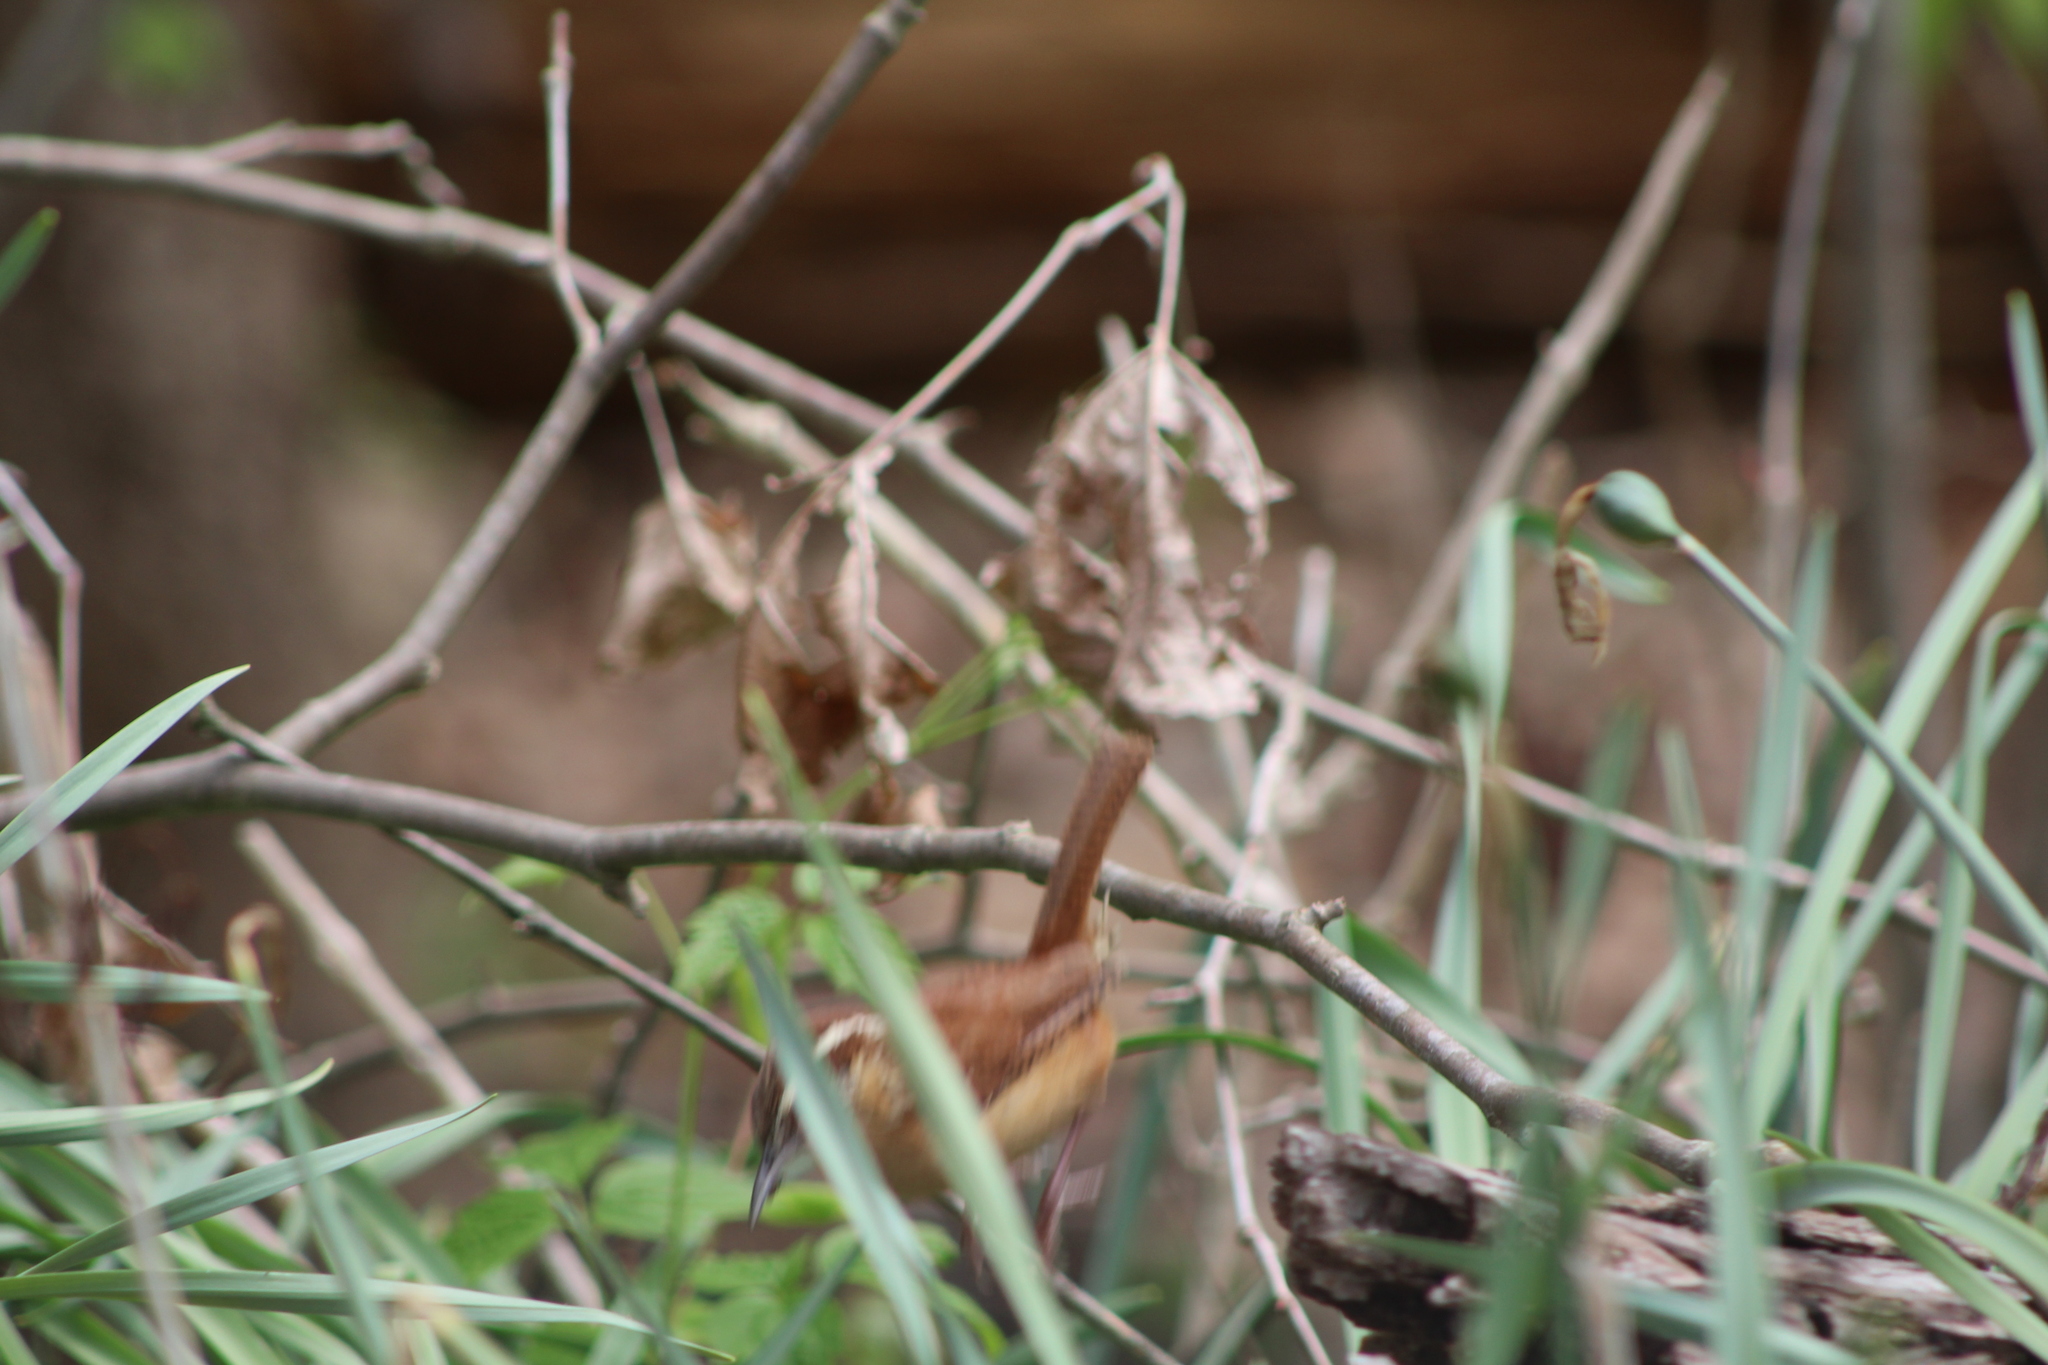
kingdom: Animalia
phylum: Chordata
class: Aves
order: Passeriformes
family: Troglodytidae
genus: Thryothorus
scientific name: Thryothorus ludovicianus
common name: Carolina wren
